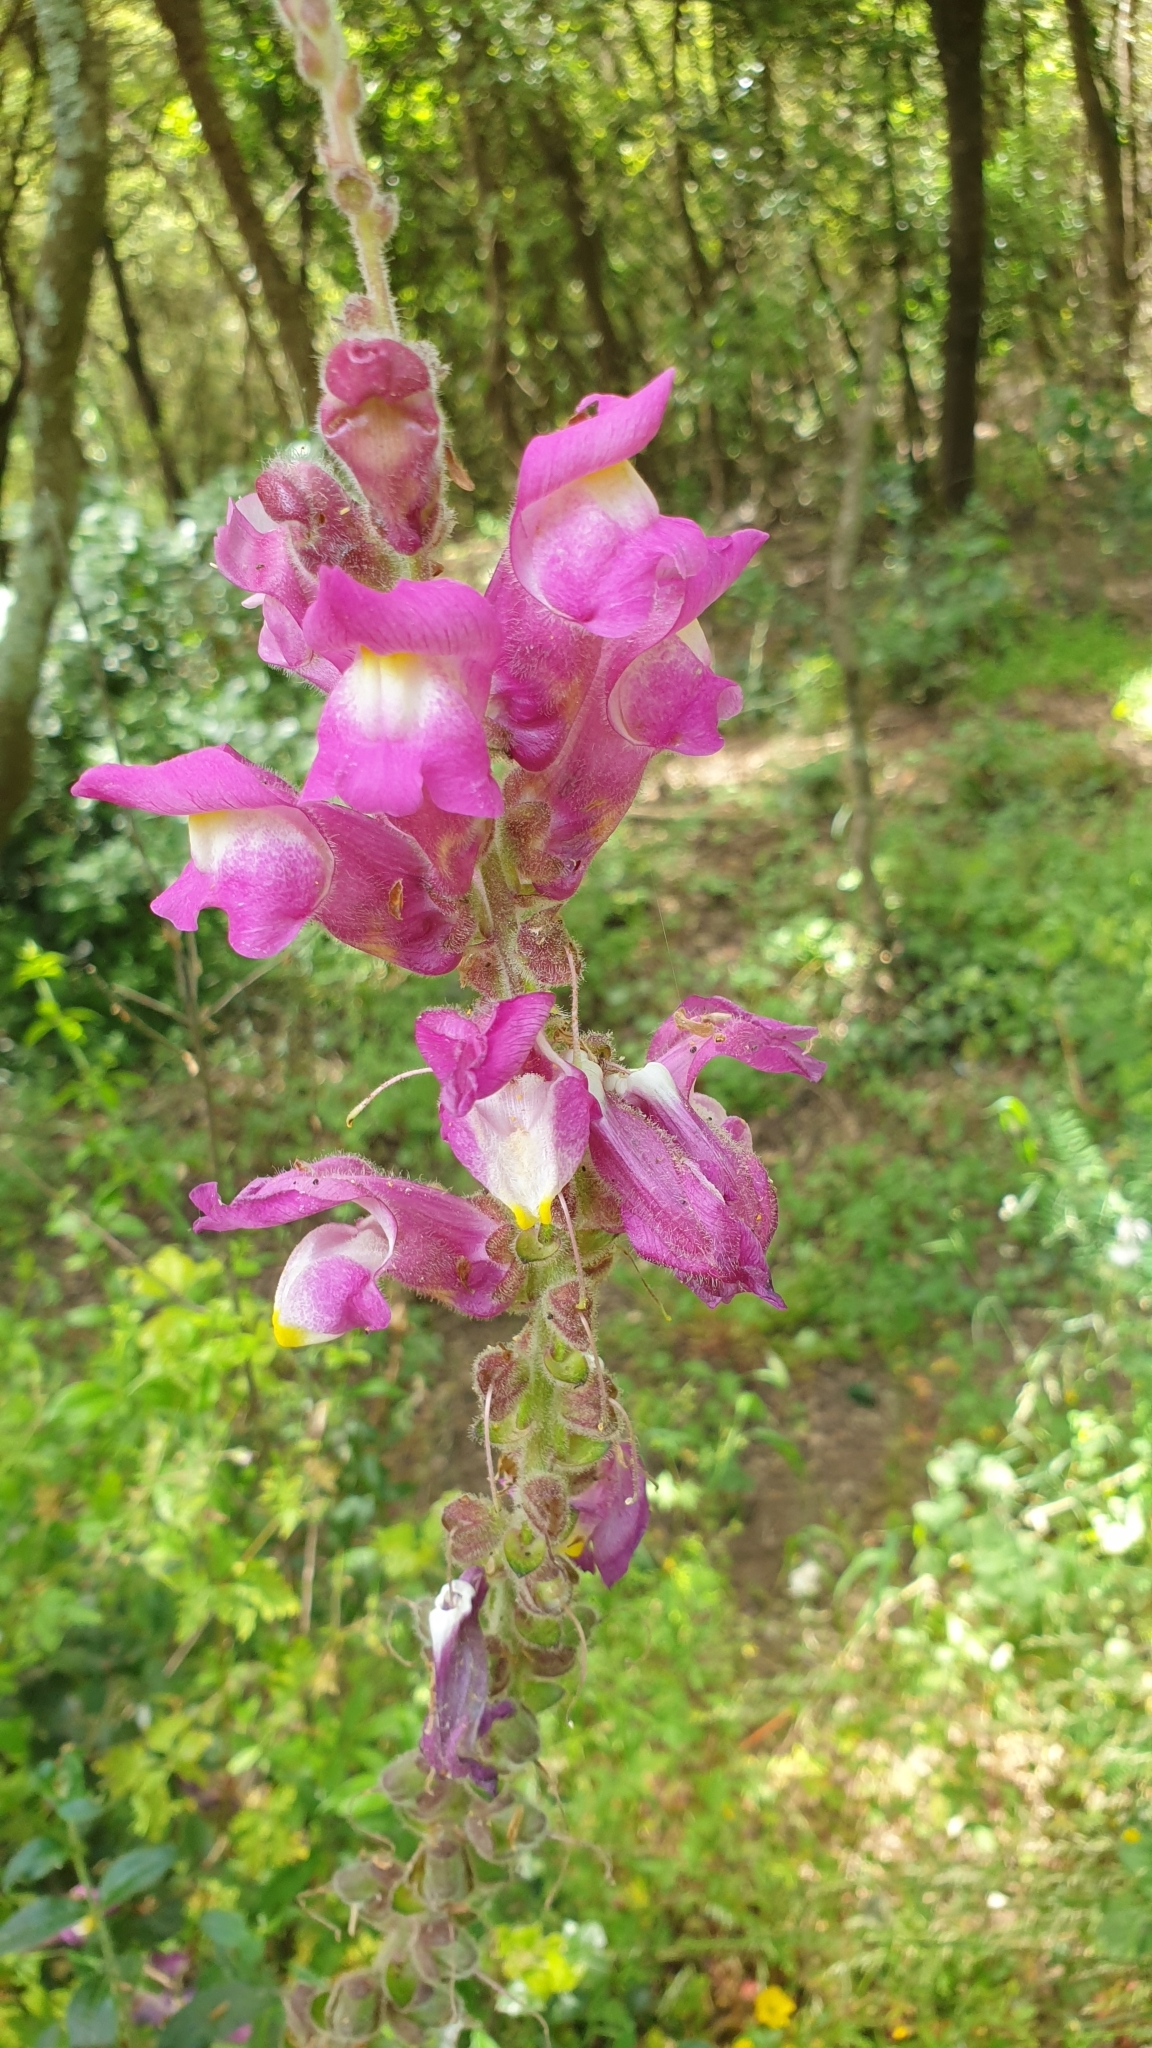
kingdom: Plantae
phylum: Tracheophyta
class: Magnoliopsida
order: Lamiales
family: Plantaginaceae
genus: Antirrhinum
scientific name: Antirrhinum majus
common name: Snapdragon
